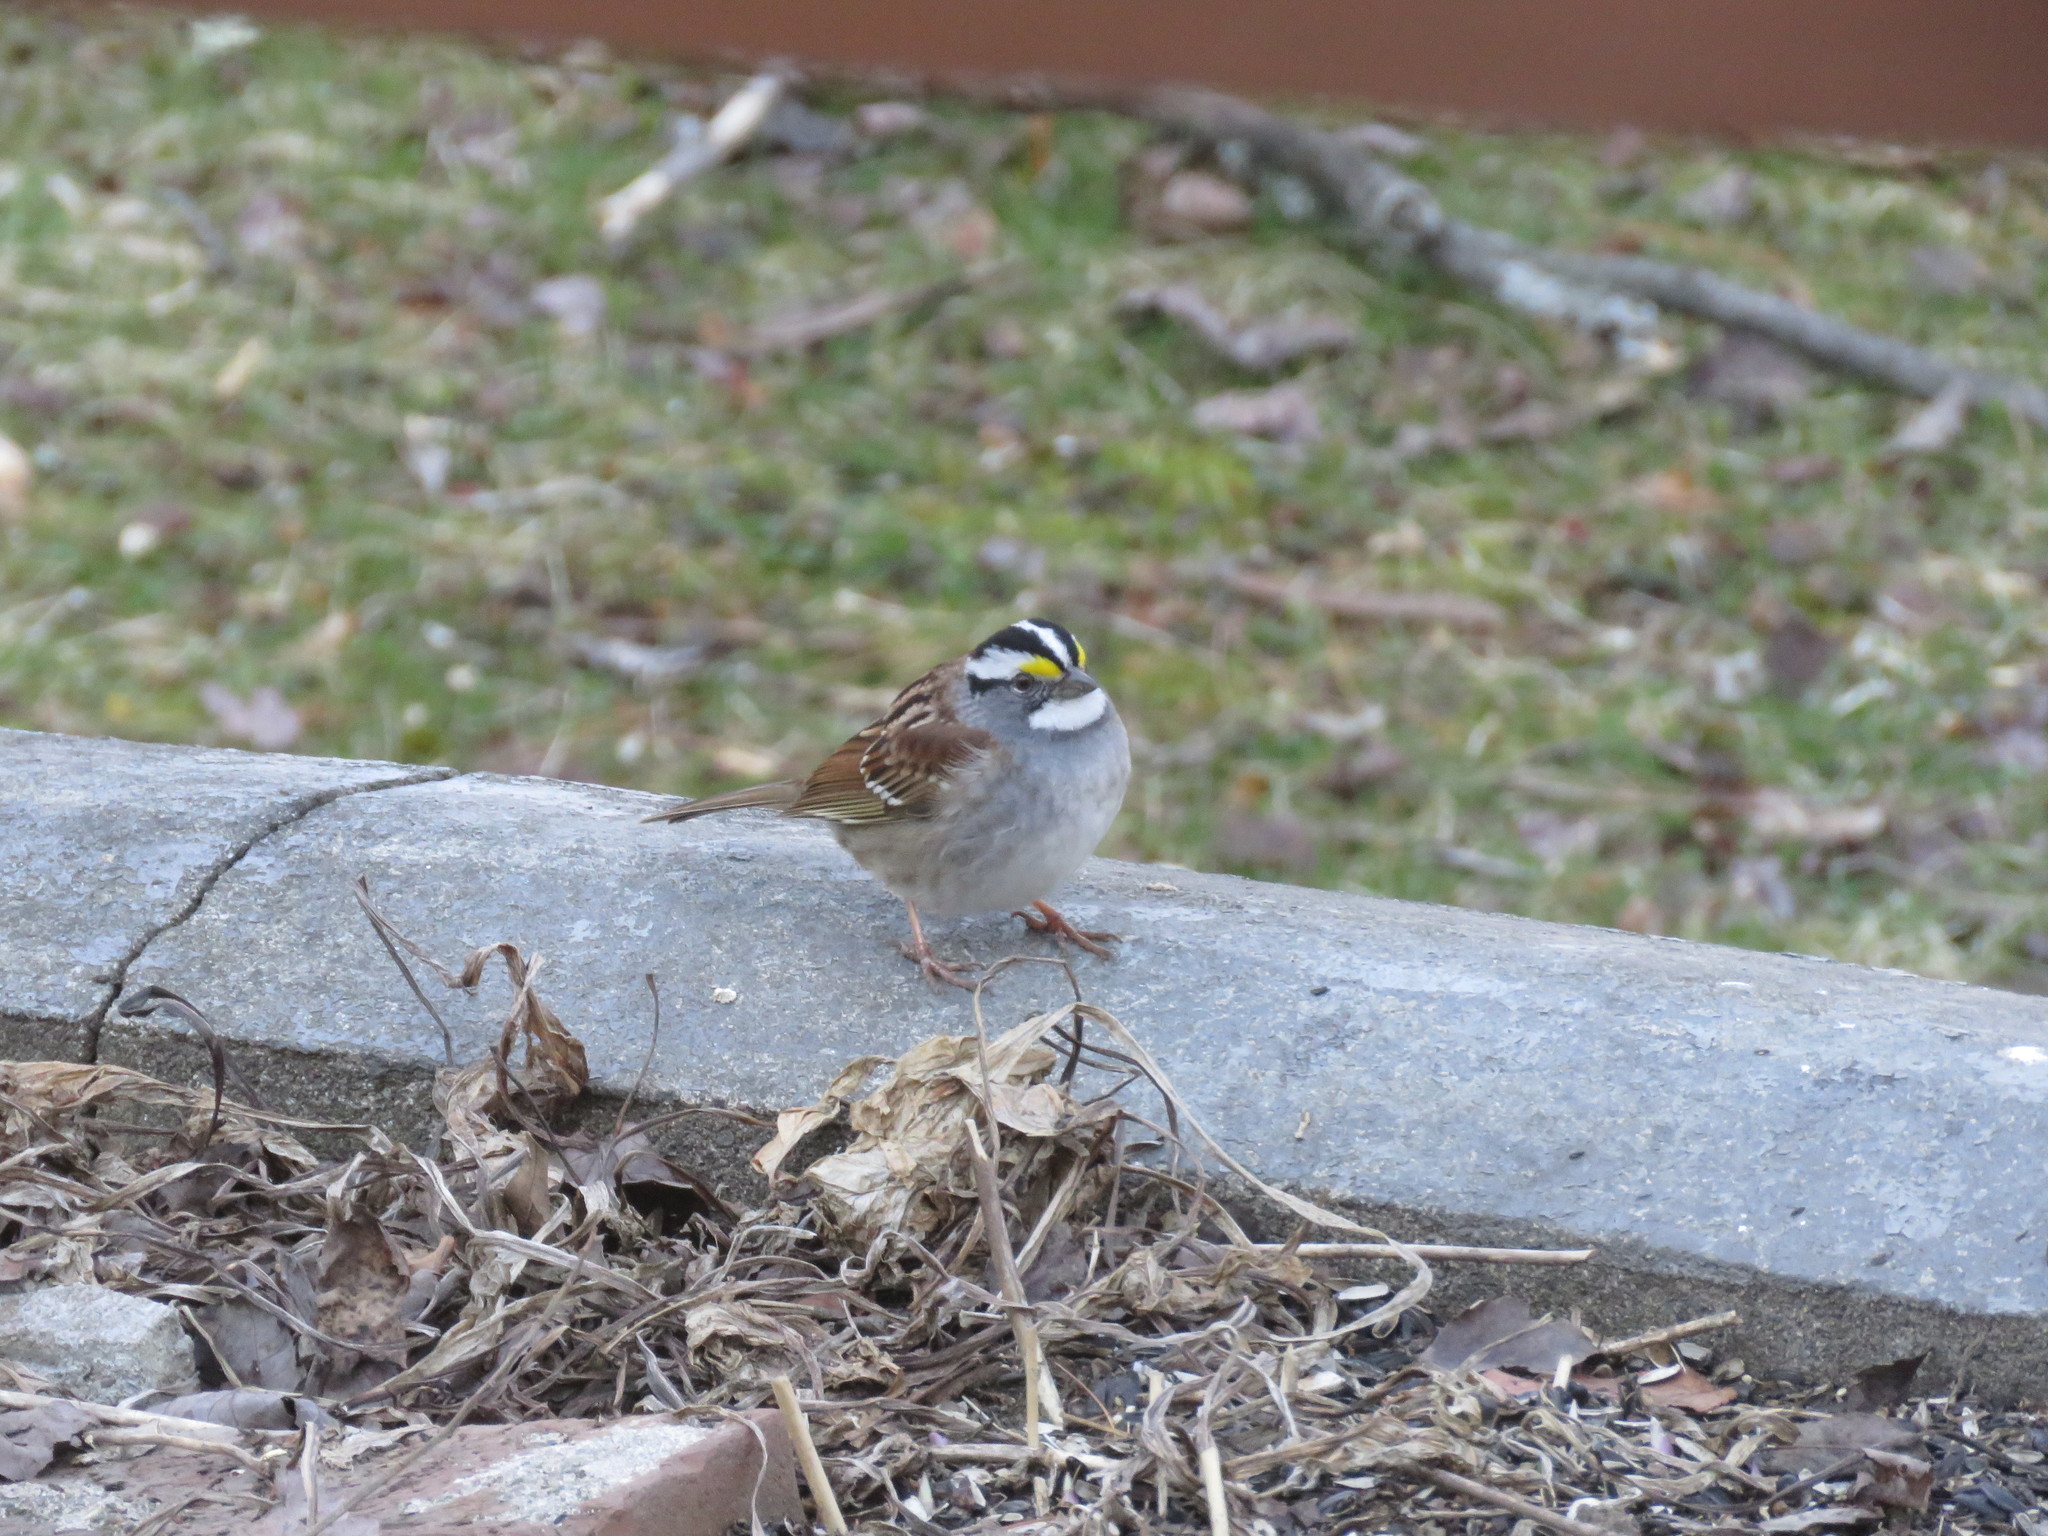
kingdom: Animalia
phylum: Chordata
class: Aves
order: Passeriformes
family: Passerellidae
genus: Zonotrichia
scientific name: Zonotrichia albicollis
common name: White-throated sparrow
